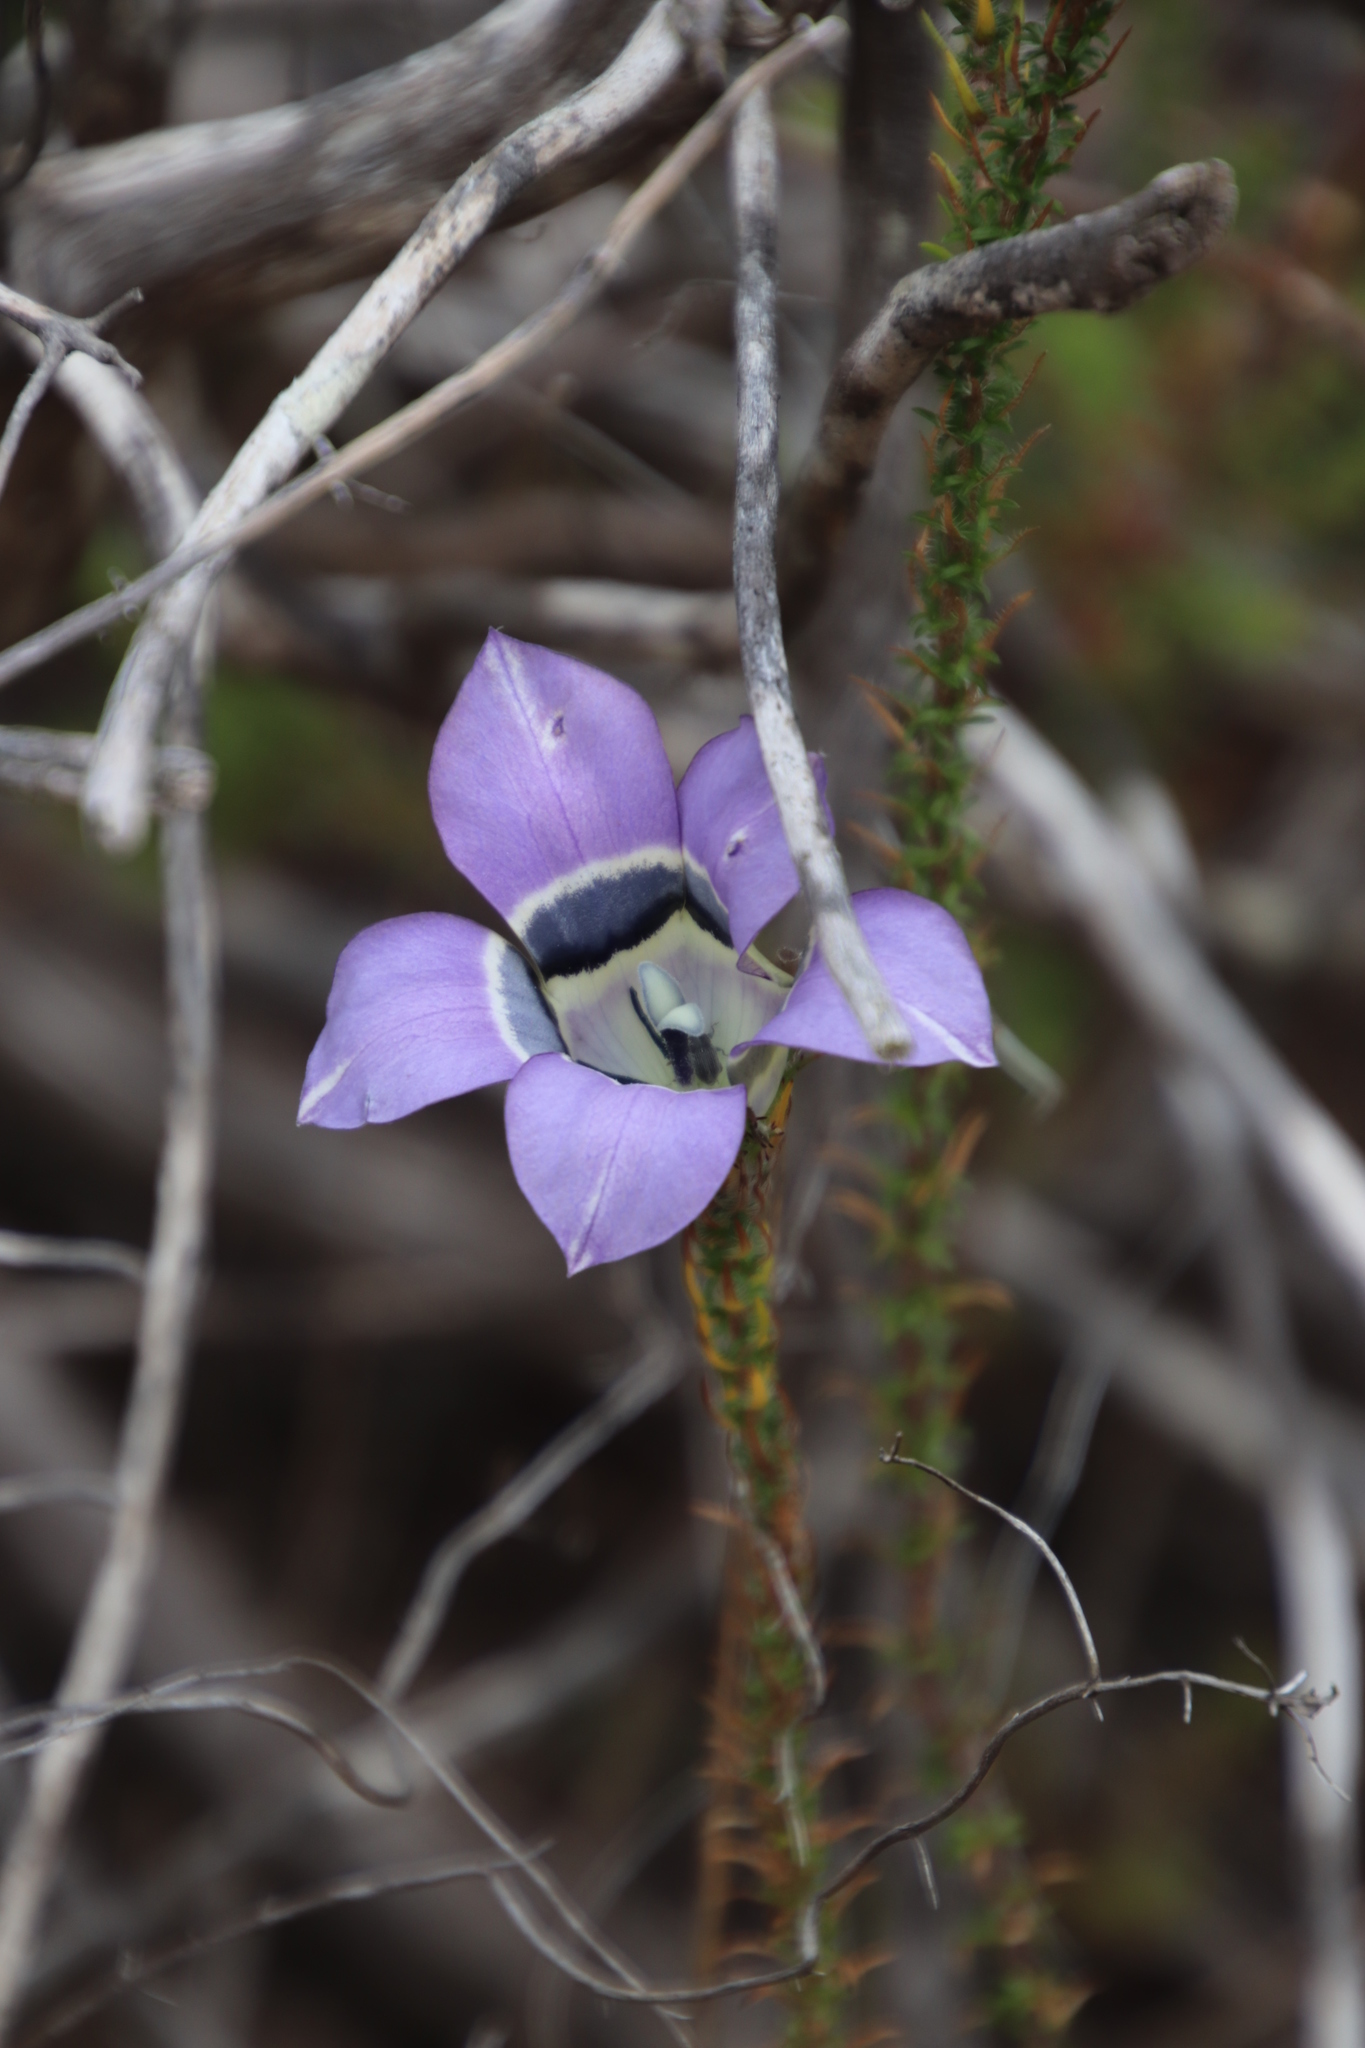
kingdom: Plantae
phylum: Tracheophyta
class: Magnoliopsida
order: Asterales
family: Campanulaceae
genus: Roella
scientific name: Roella ciliata
